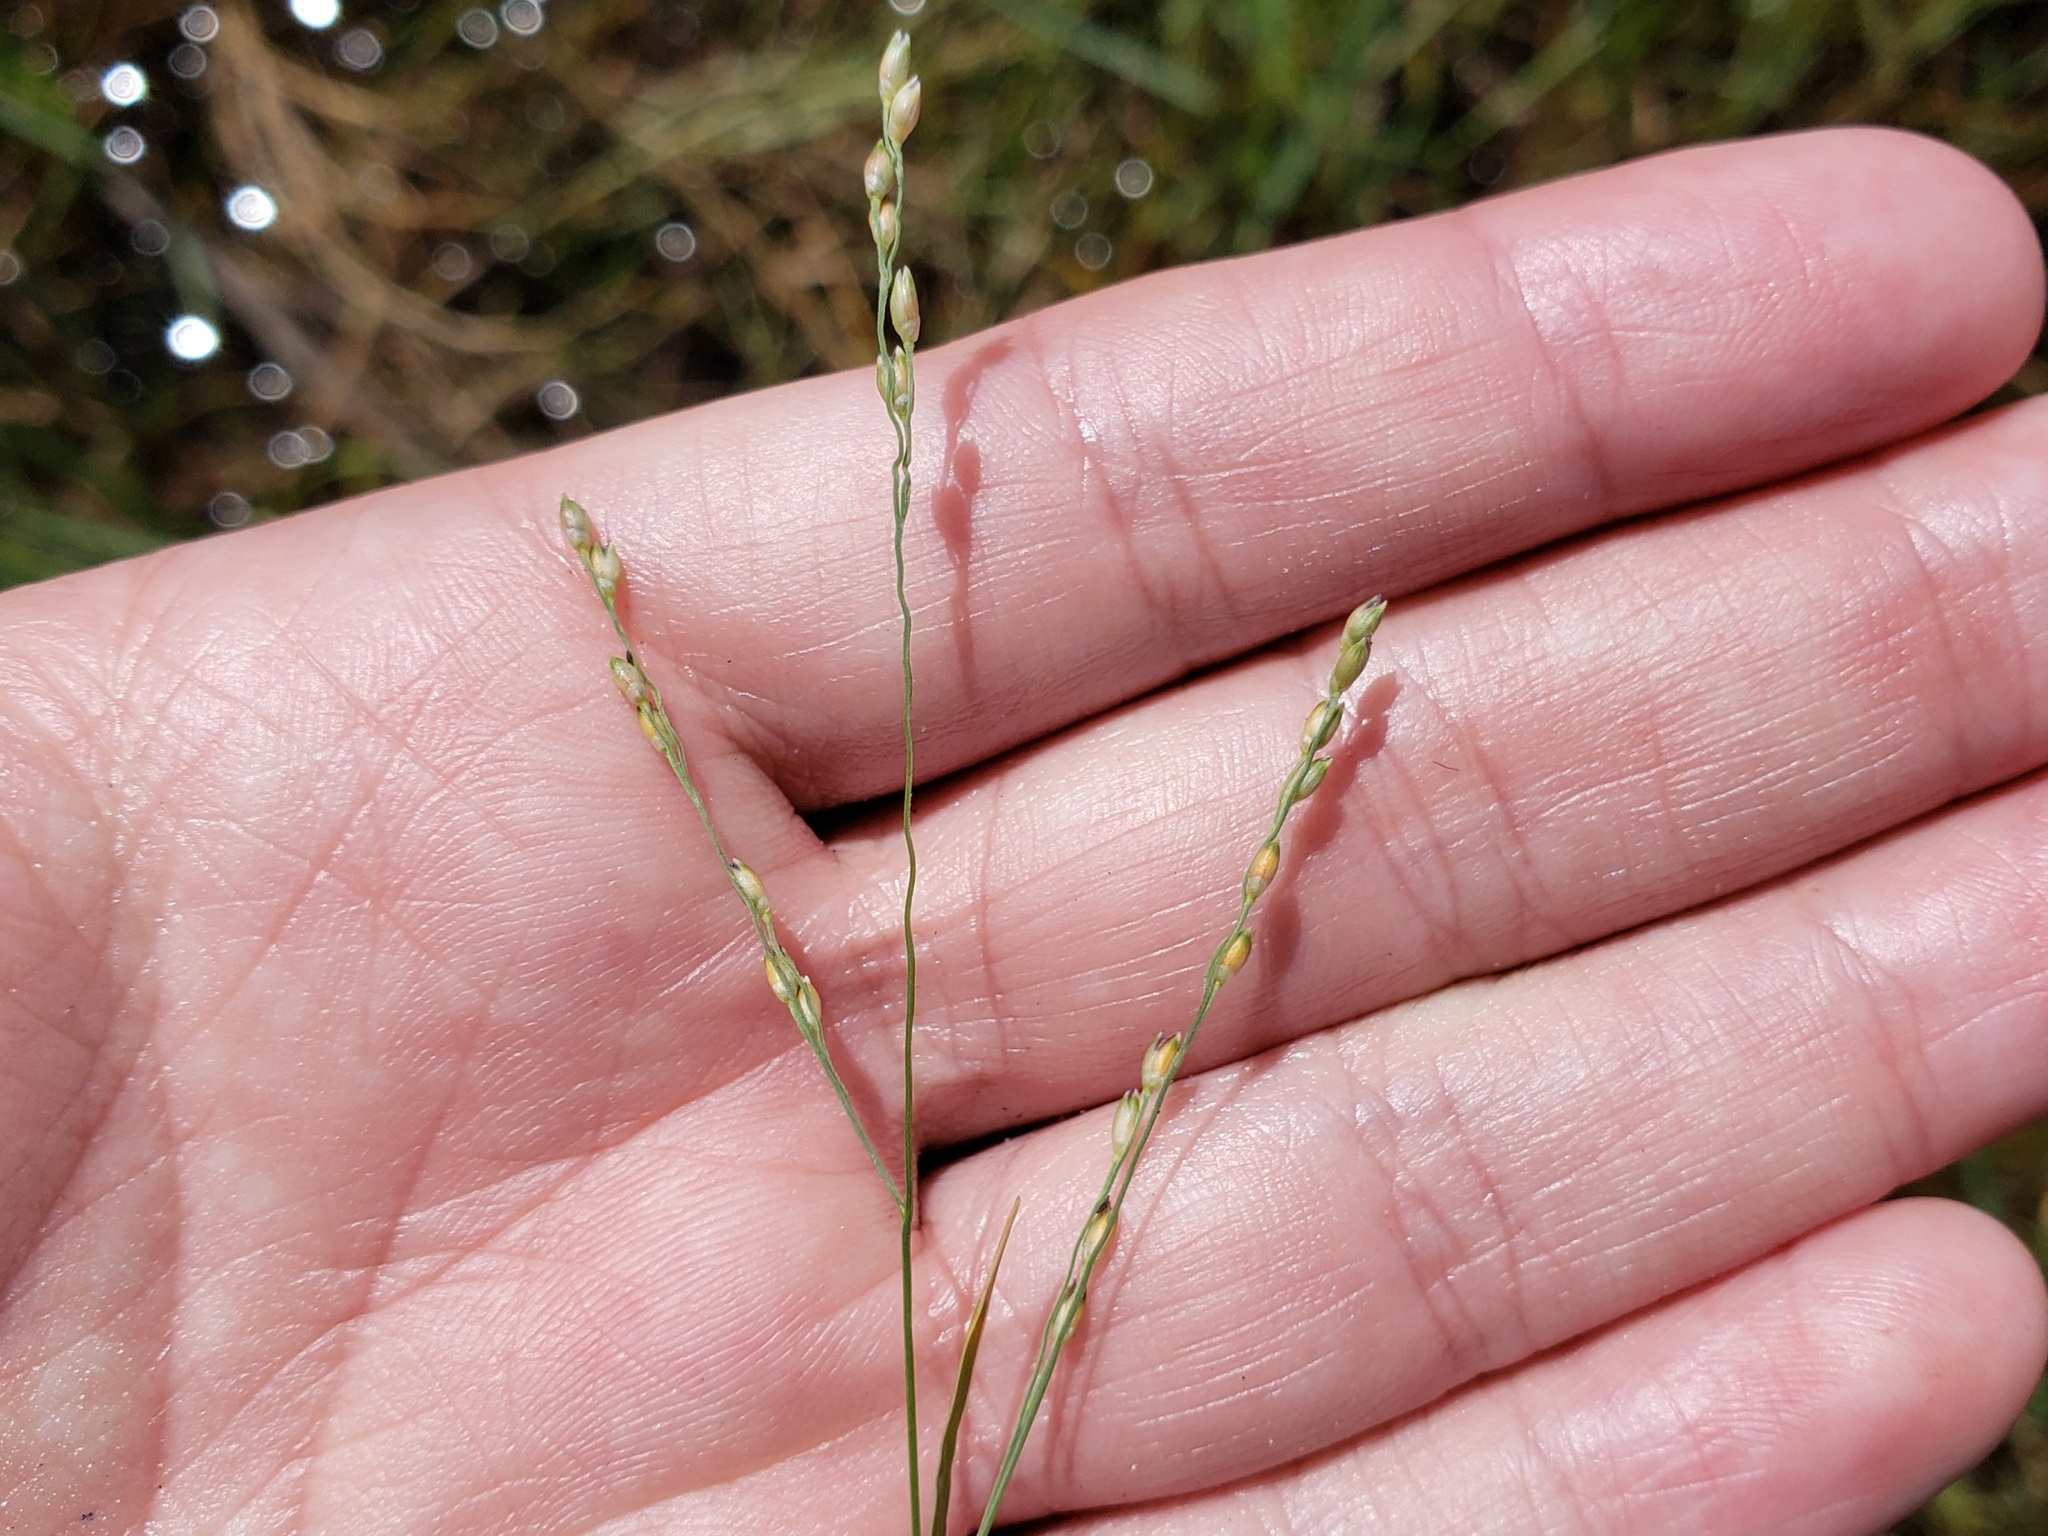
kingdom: Plantae
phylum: Tracheophyta
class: Liliopsida
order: Poales
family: Poaceae
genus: Panicum
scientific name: Panicum repens
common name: Torpedo grass
